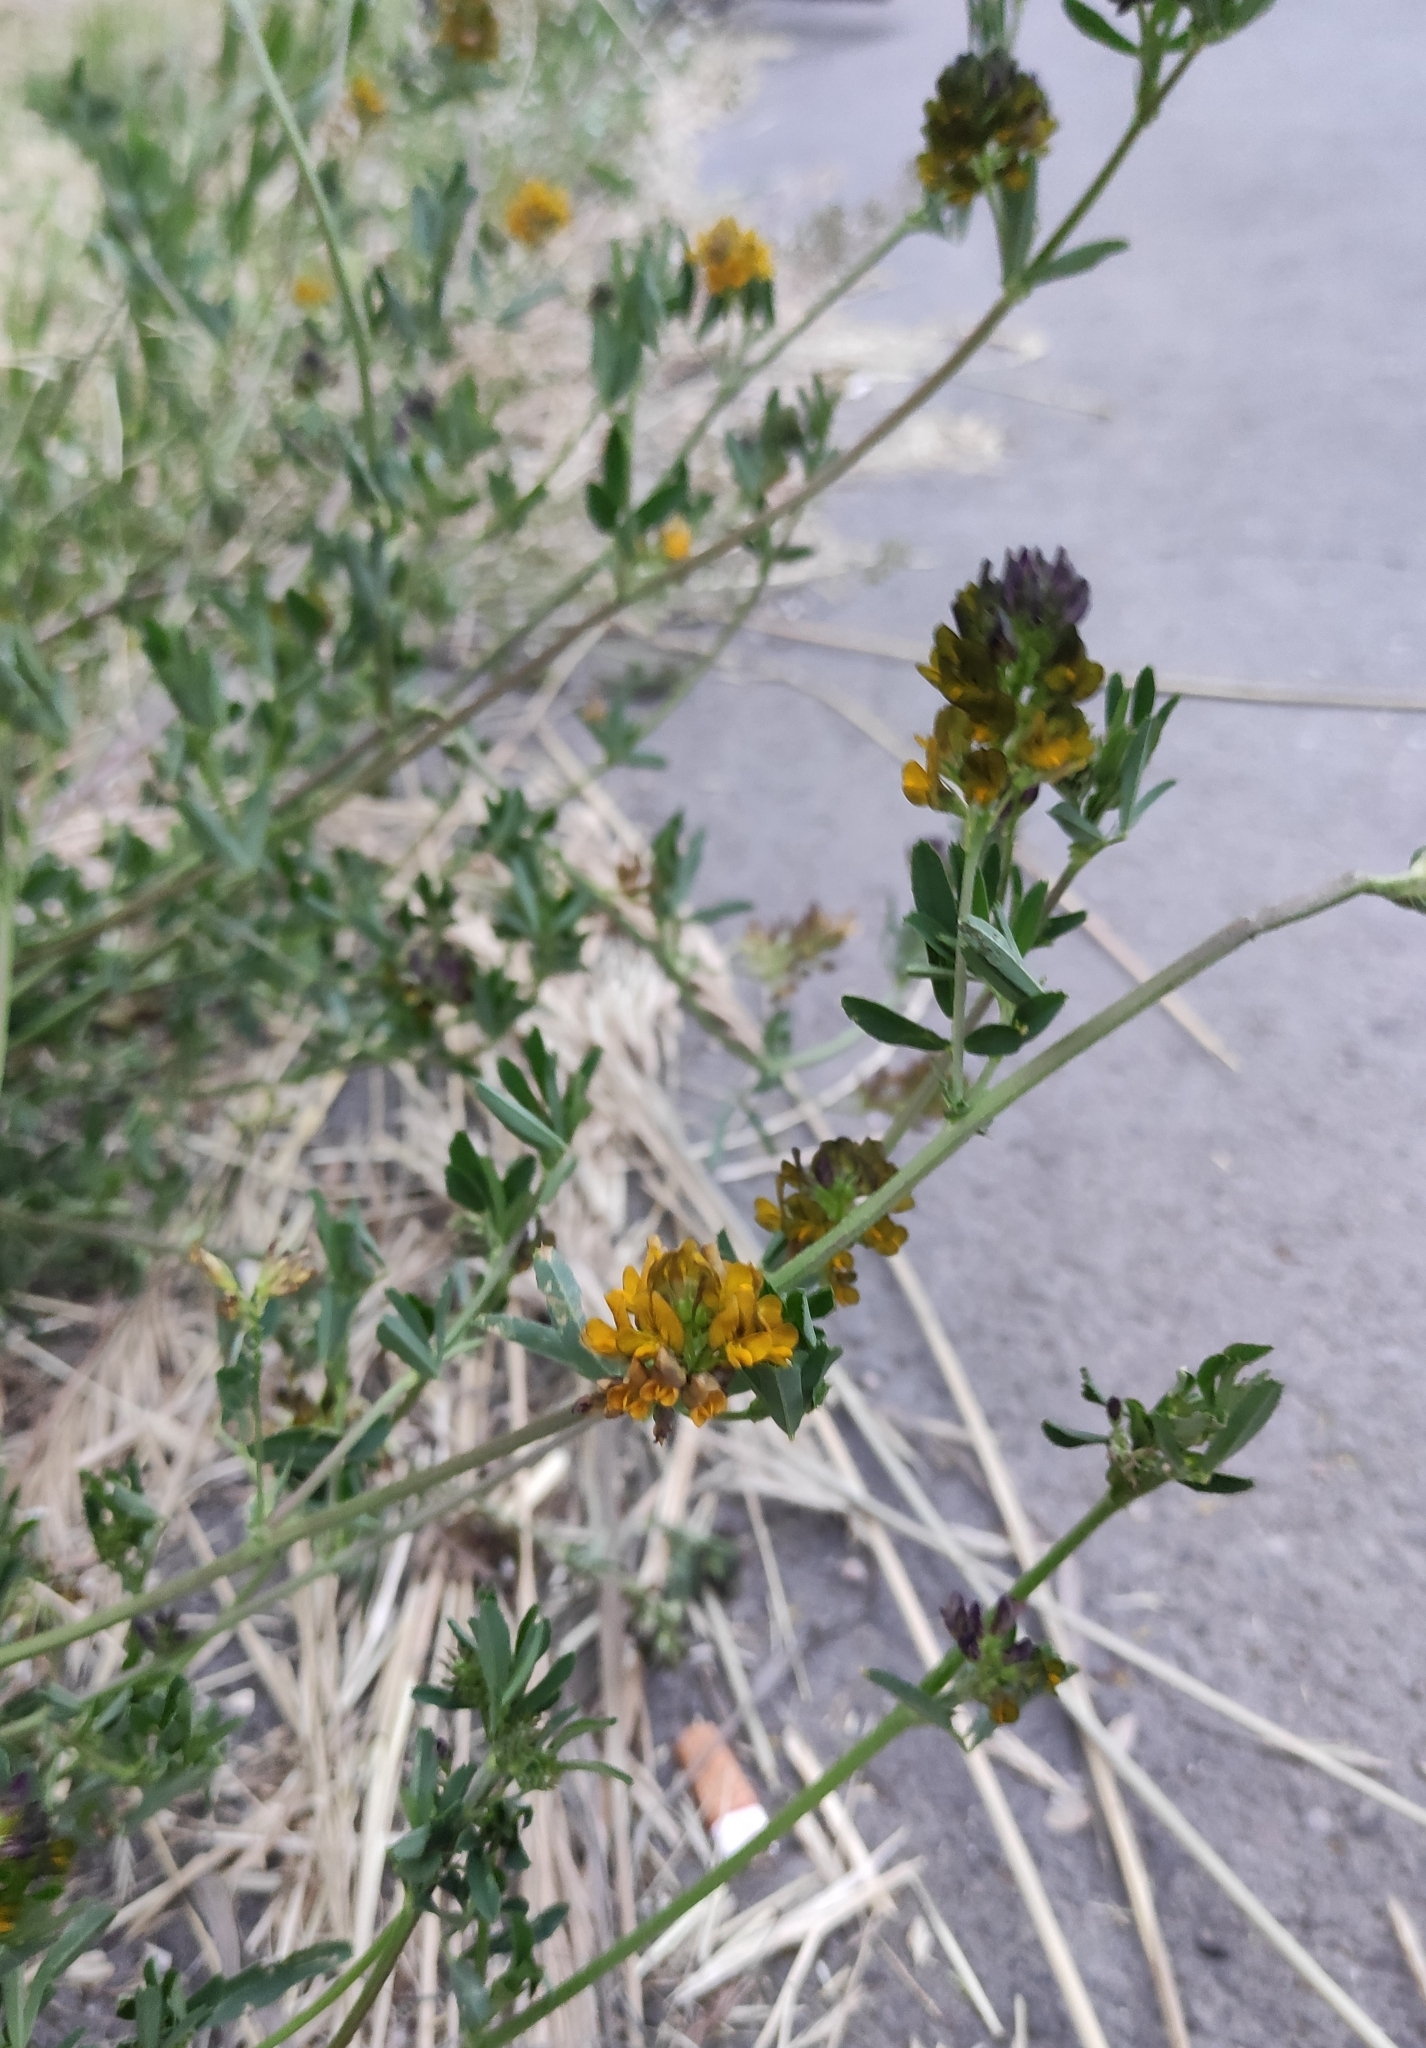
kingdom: Plantae
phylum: Tracheophyta
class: Magnoliopsida
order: Fabales
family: Fabaceae
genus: Medicago
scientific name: Medicago varia
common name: Sand lucerne
